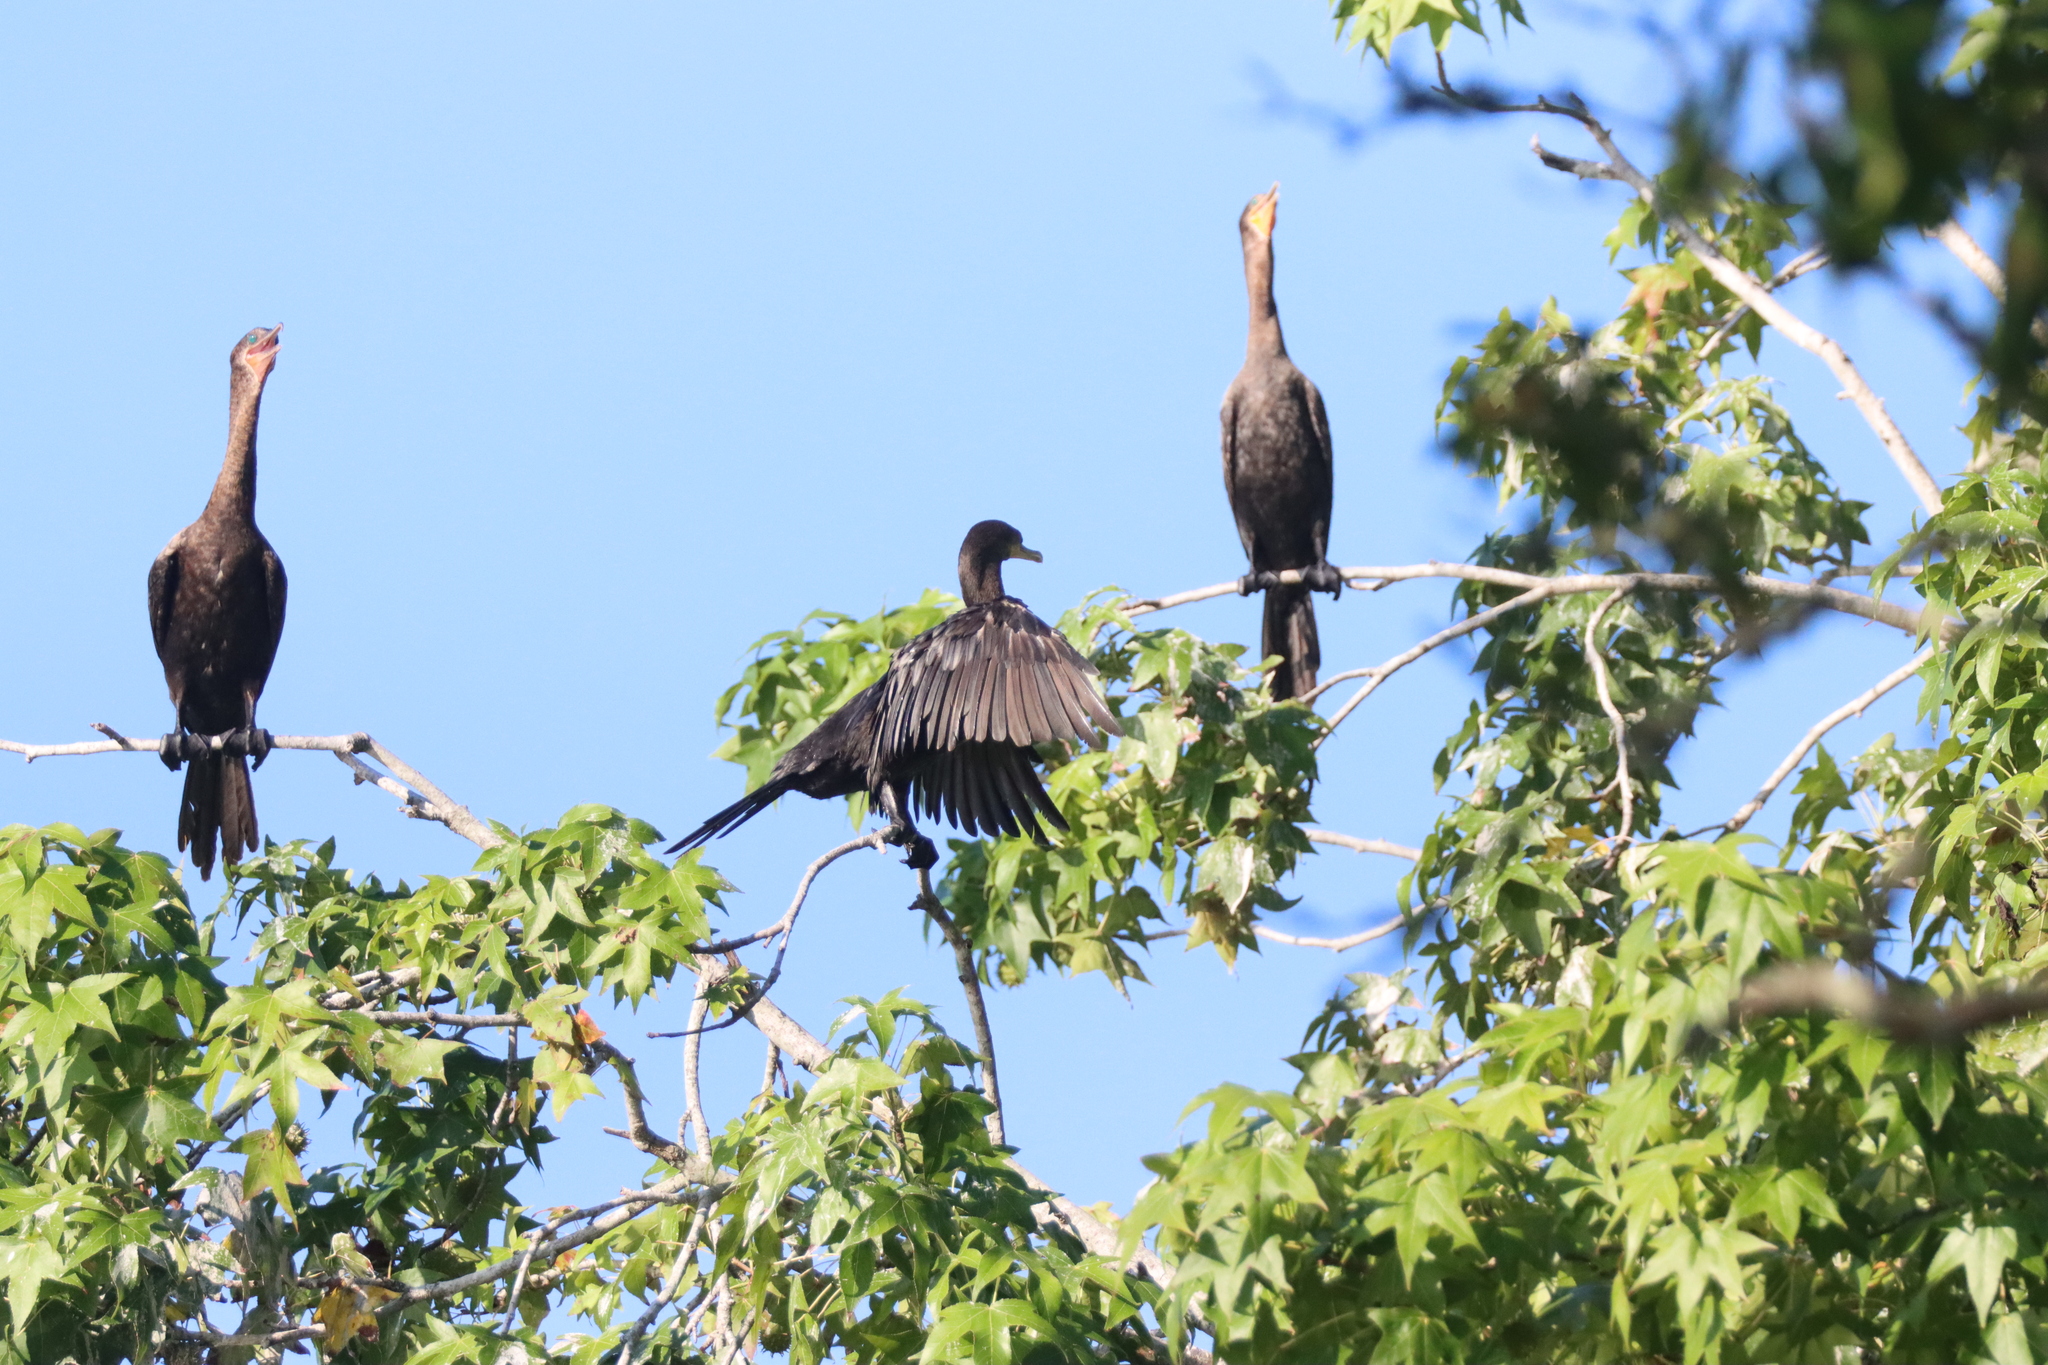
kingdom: Animalia
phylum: Chordata
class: Aves
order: Suliformes
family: Phalacrocoracidae
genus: Phalacrocorax
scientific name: Phalacrocorax brasilianus
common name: Neotropic cormorant
